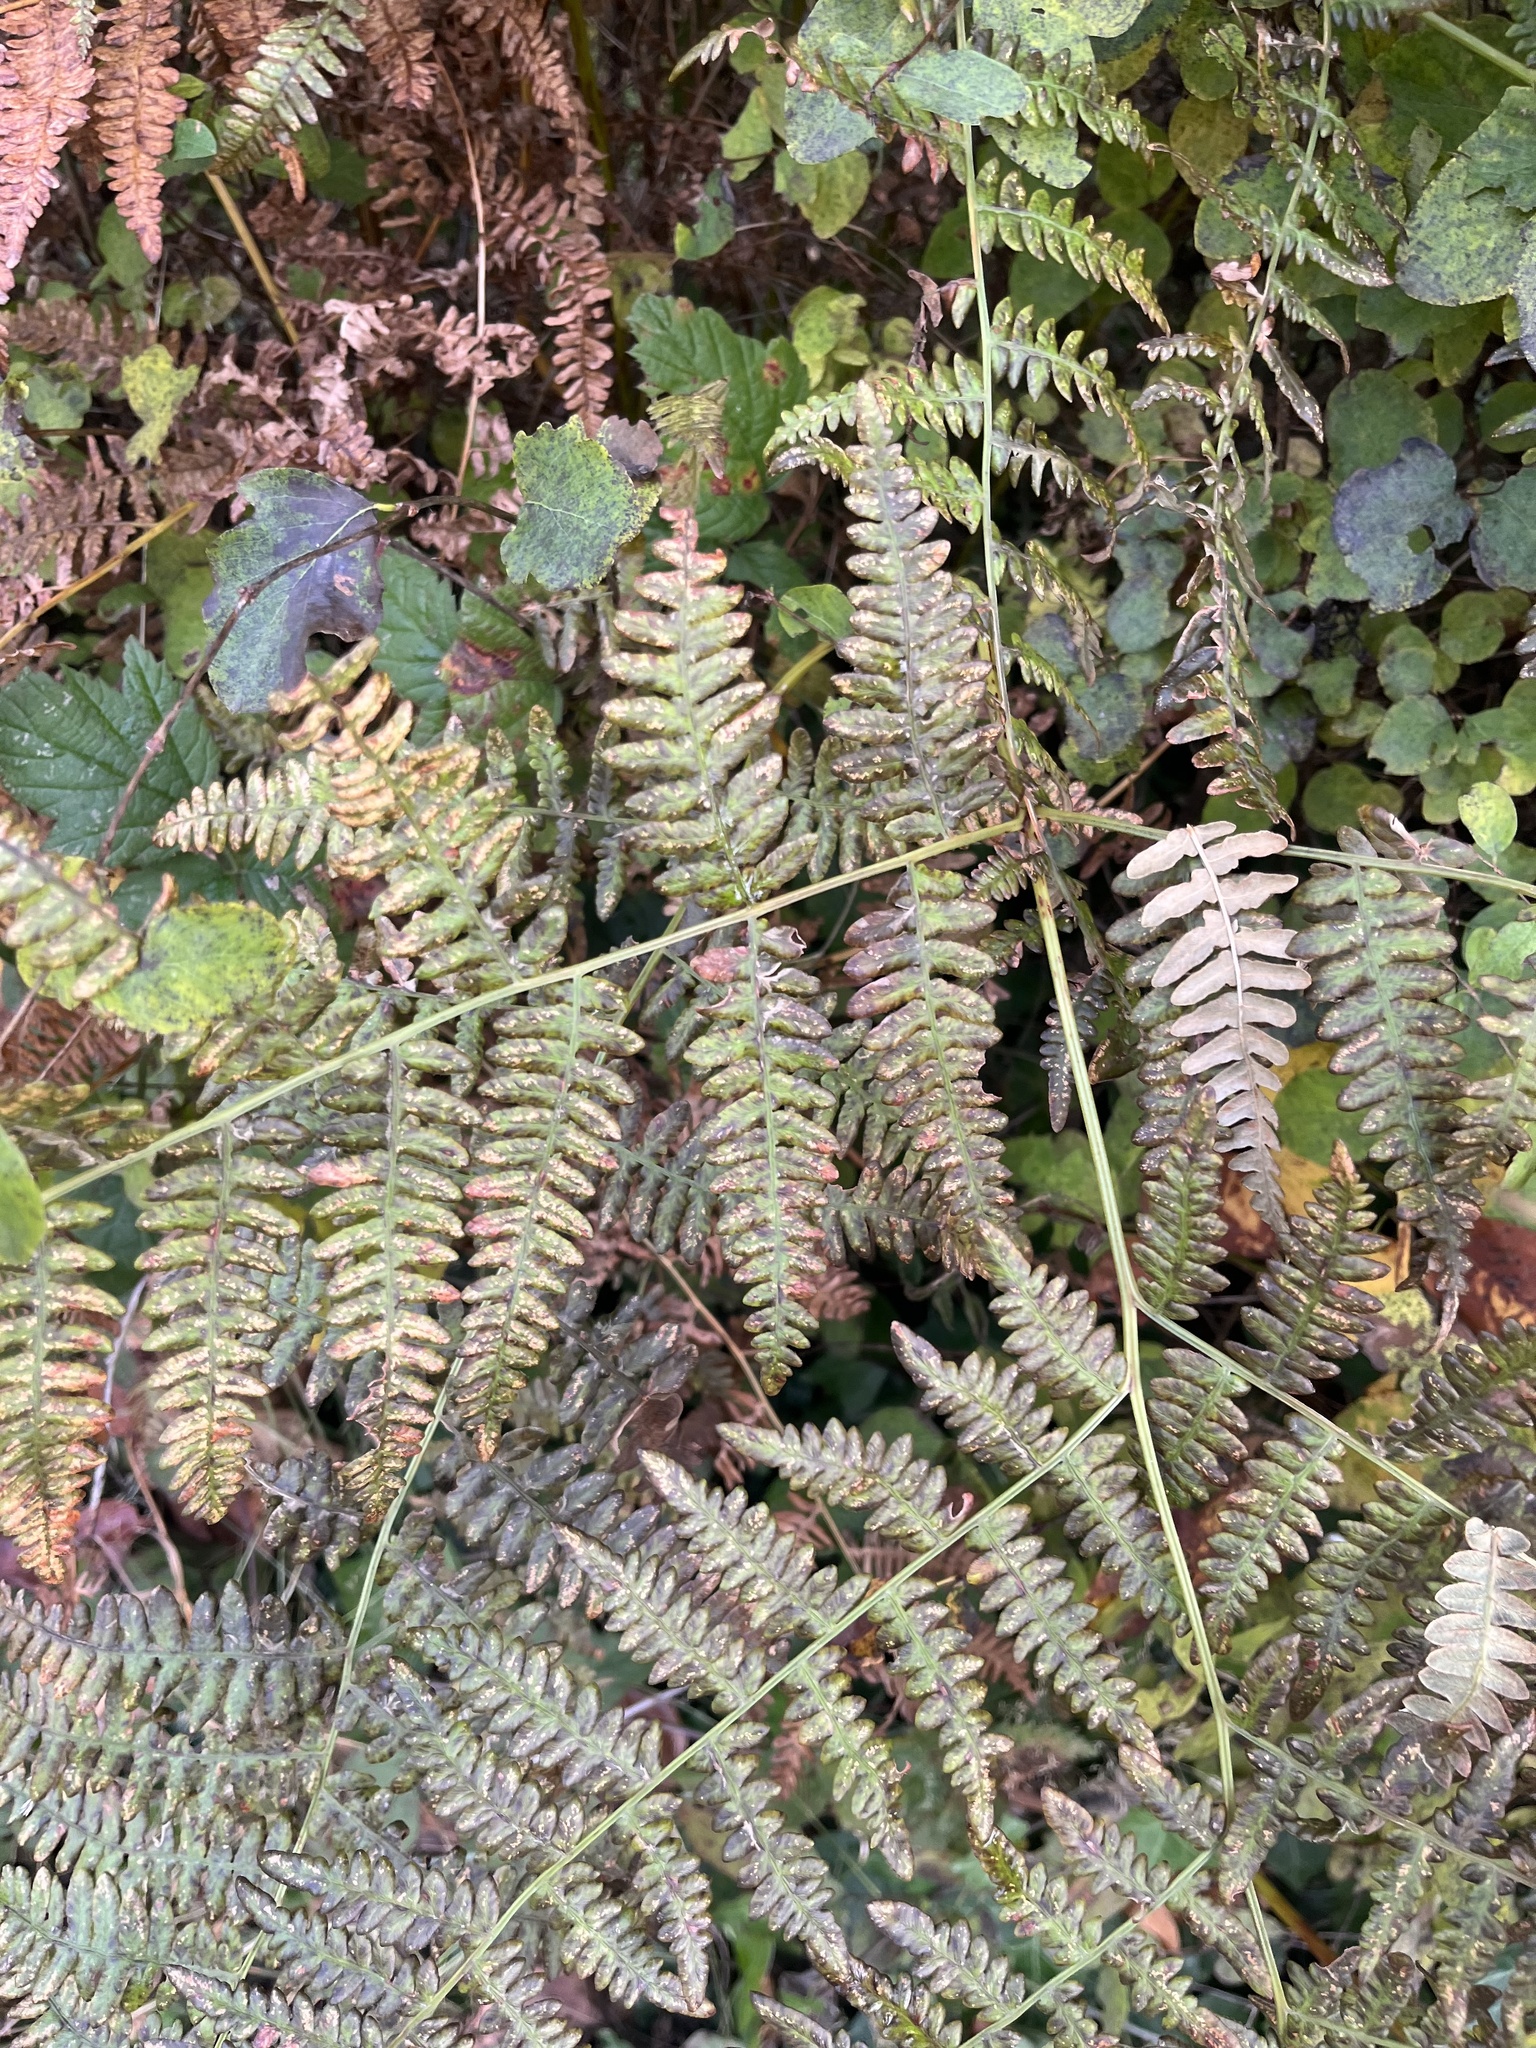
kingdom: Plantae
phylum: Tracheophyta
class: Polypodiopsida
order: Polypodiales
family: Dennstaedtiaceae
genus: Pteridium
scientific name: Pteridium aquilinum
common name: Bracken
